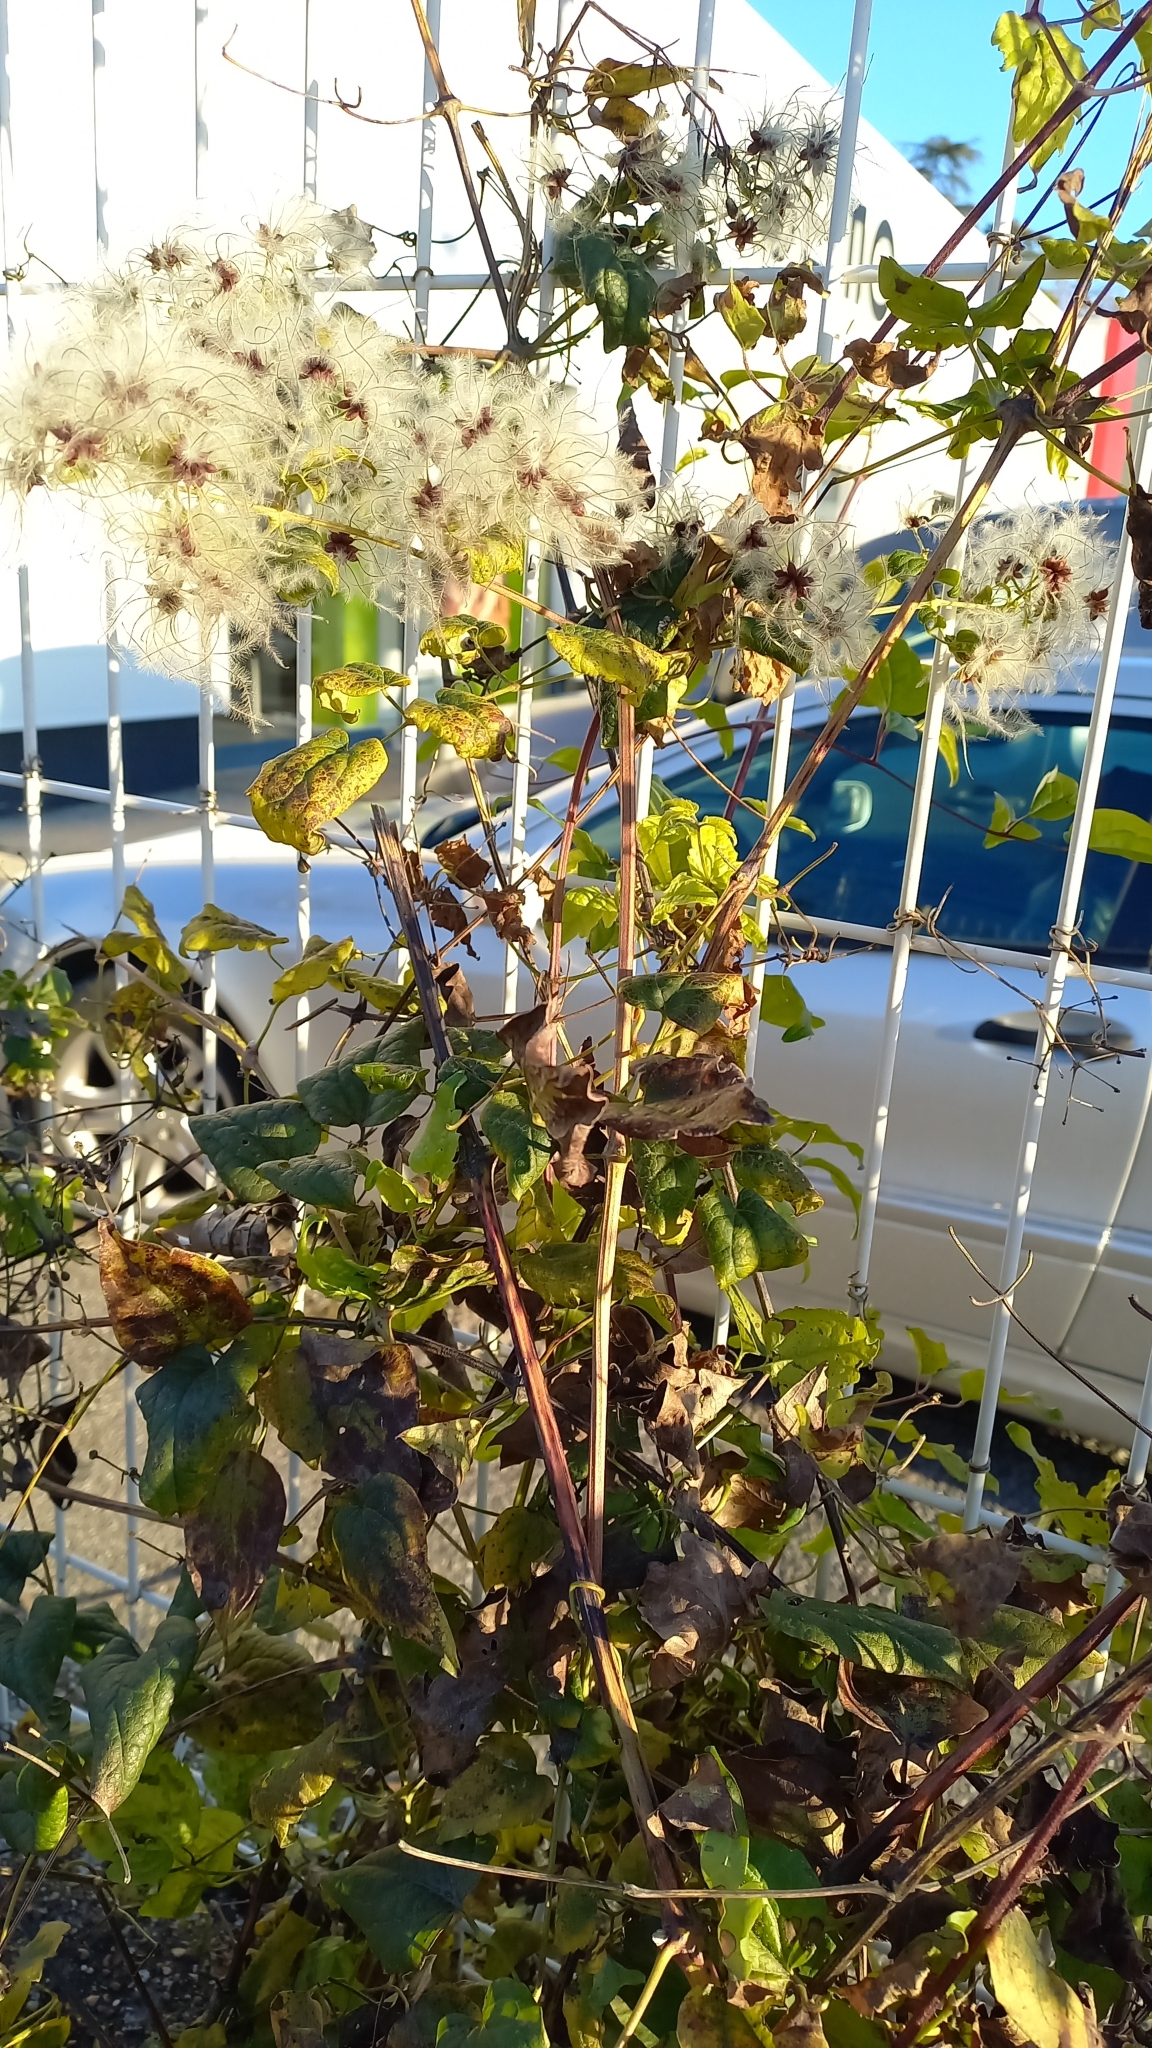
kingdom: Plantae
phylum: Tracheophyta
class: Magnoliopsida
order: Ranunculales
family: Ranunculaceae
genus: Clematis
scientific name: Clematis vitalba
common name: Evergreen clematis
